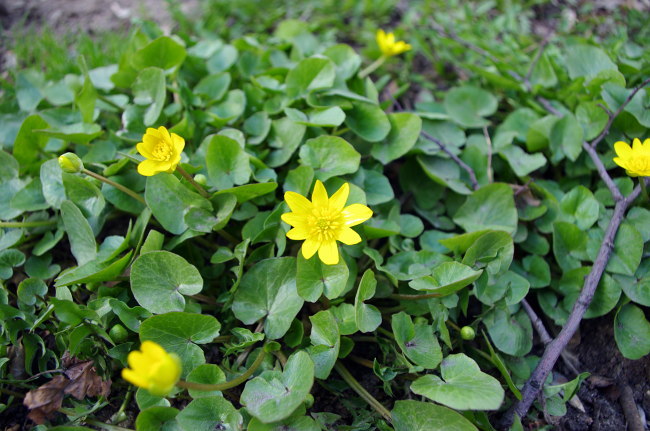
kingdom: Plantae
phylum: Tracheophyta
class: Magnoliopsida
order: Ranunculales
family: Ranunculaceae
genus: Ficaria
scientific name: Ficaria verna
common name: Lesser celandine
